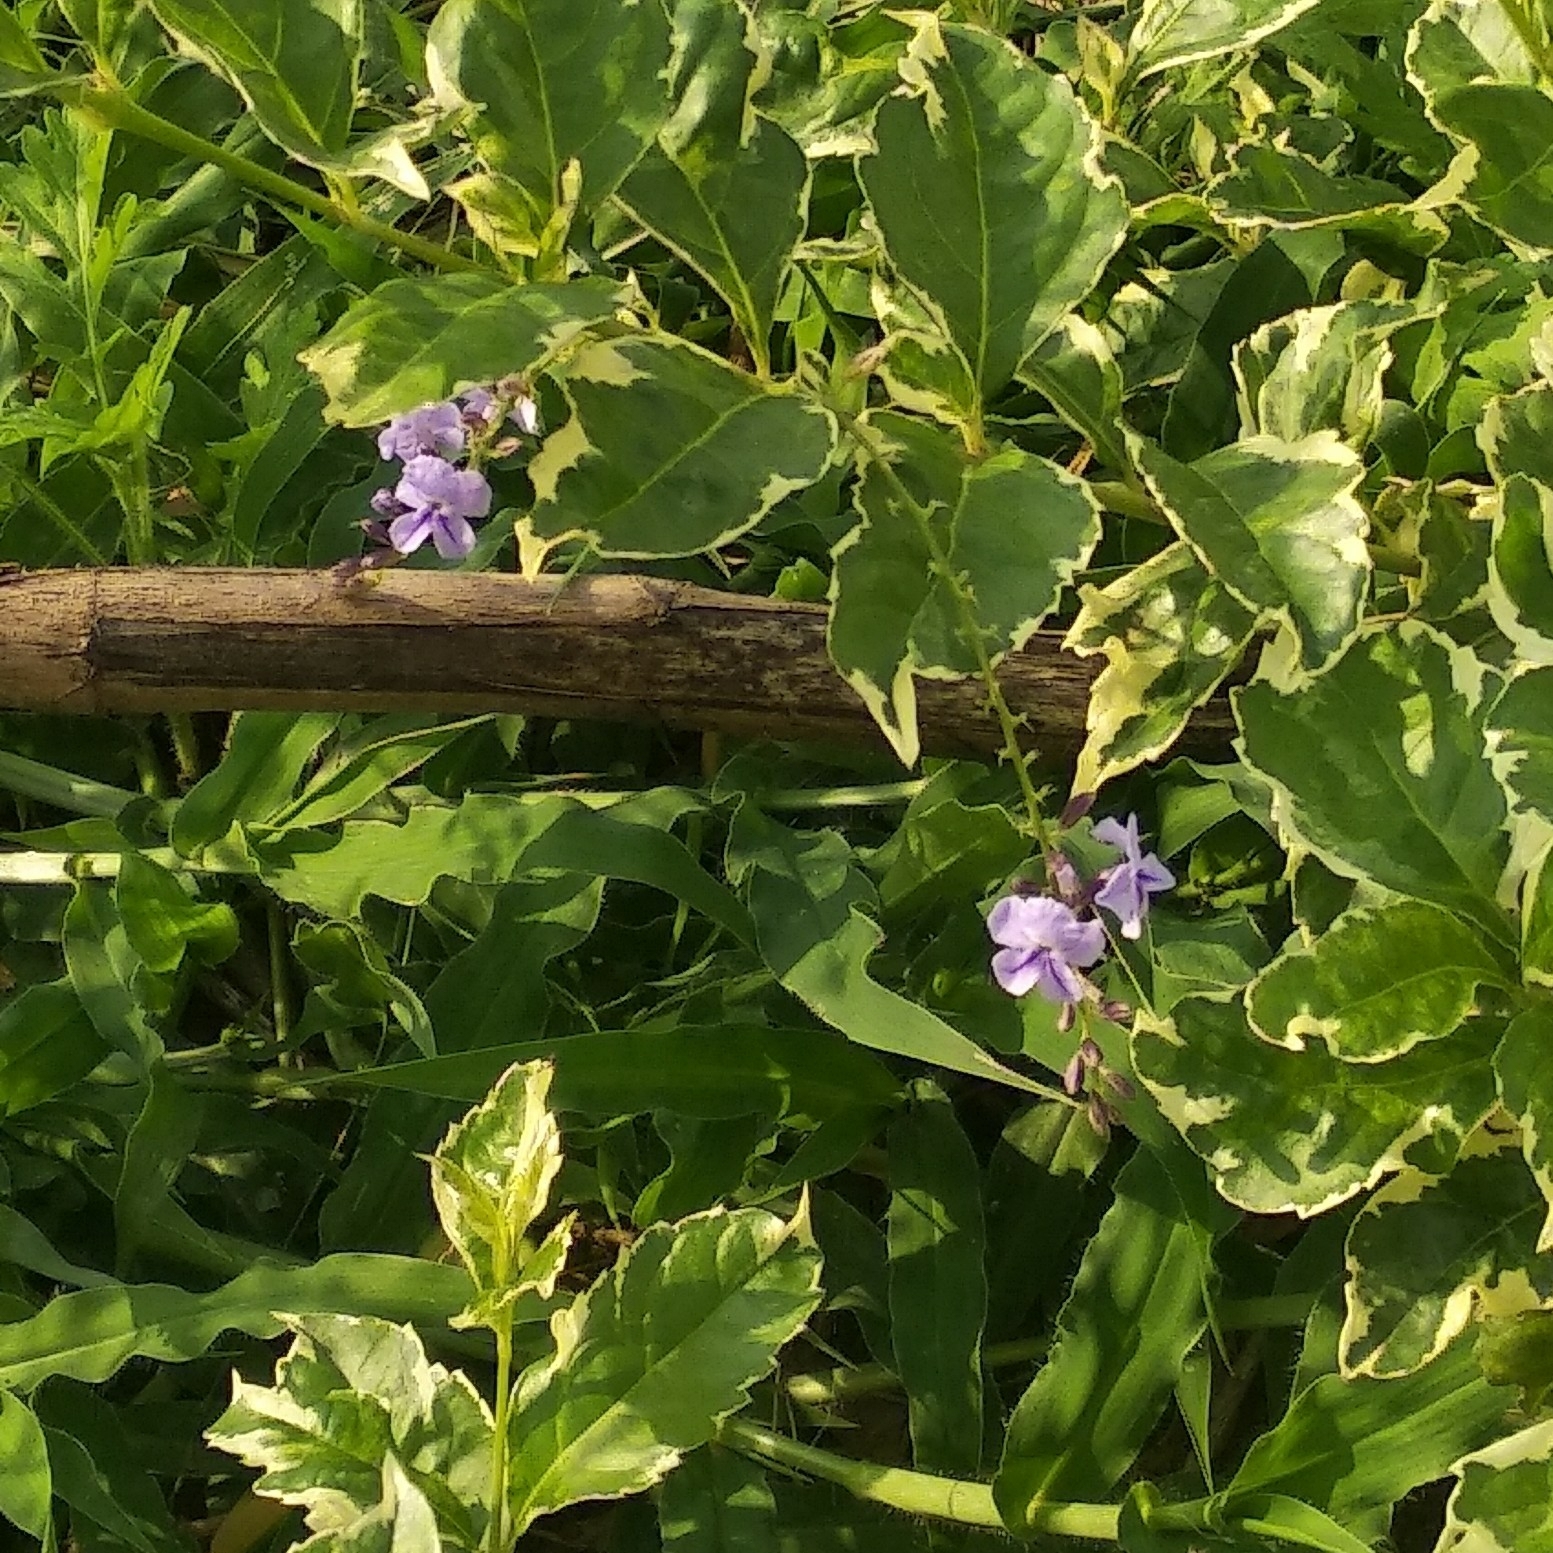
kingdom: Plantae
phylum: Tracheophyta
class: Magnoliopsida
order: Lamiales
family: Verbenaceae
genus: Duranta
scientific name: Duranta erecta
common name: Golden dewdrops
